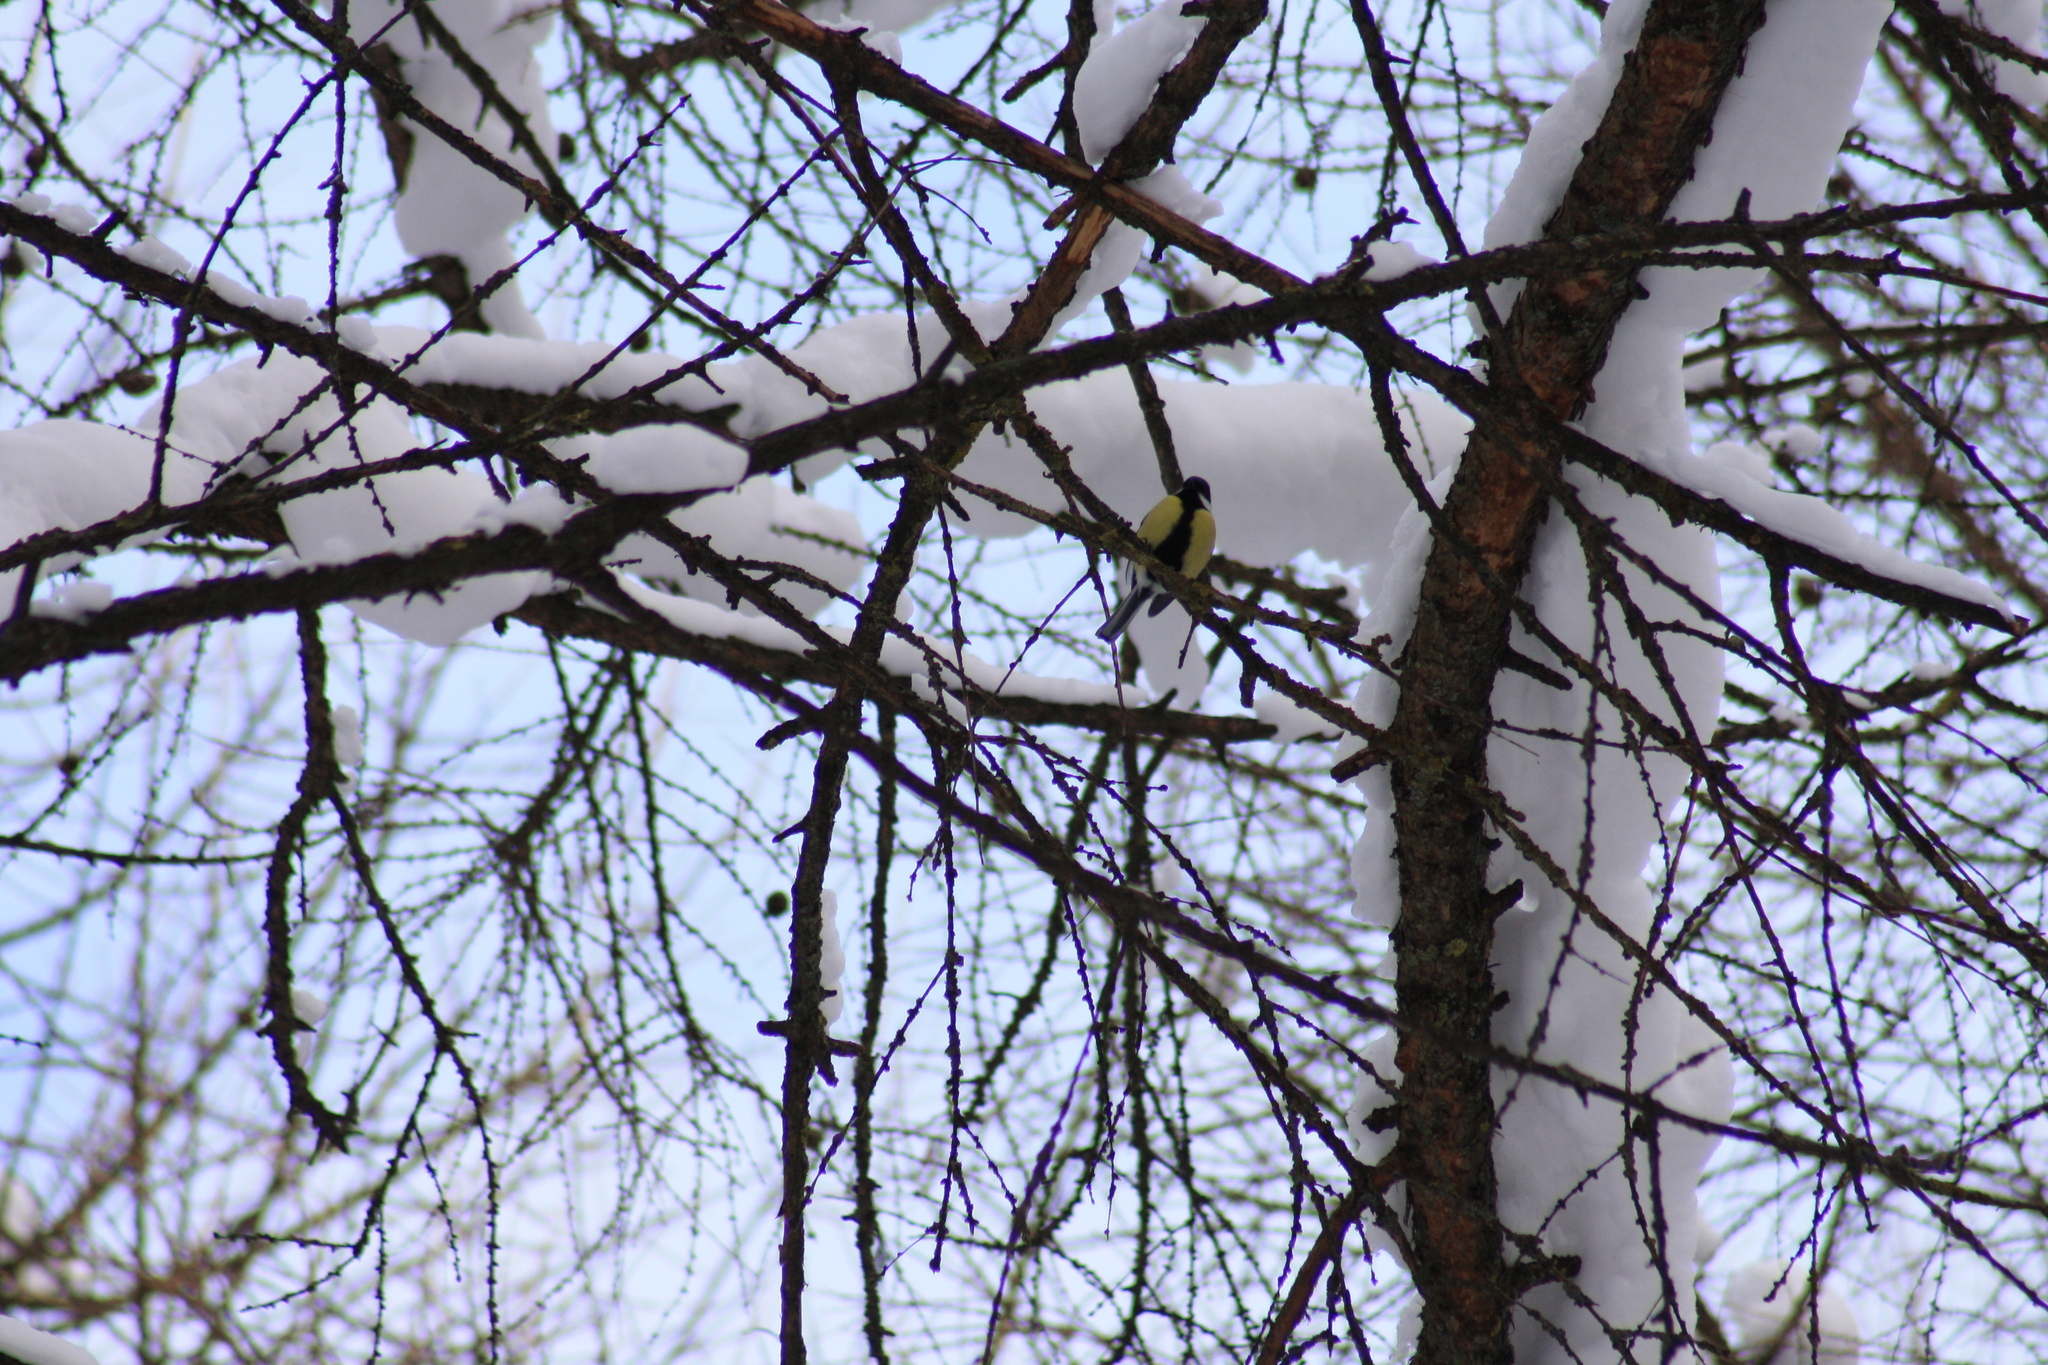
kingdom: Animalia
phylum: Chordata
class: Aves
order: Passeriformes
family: Paridae
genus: Parus
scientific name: Parus major
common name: Great tit
